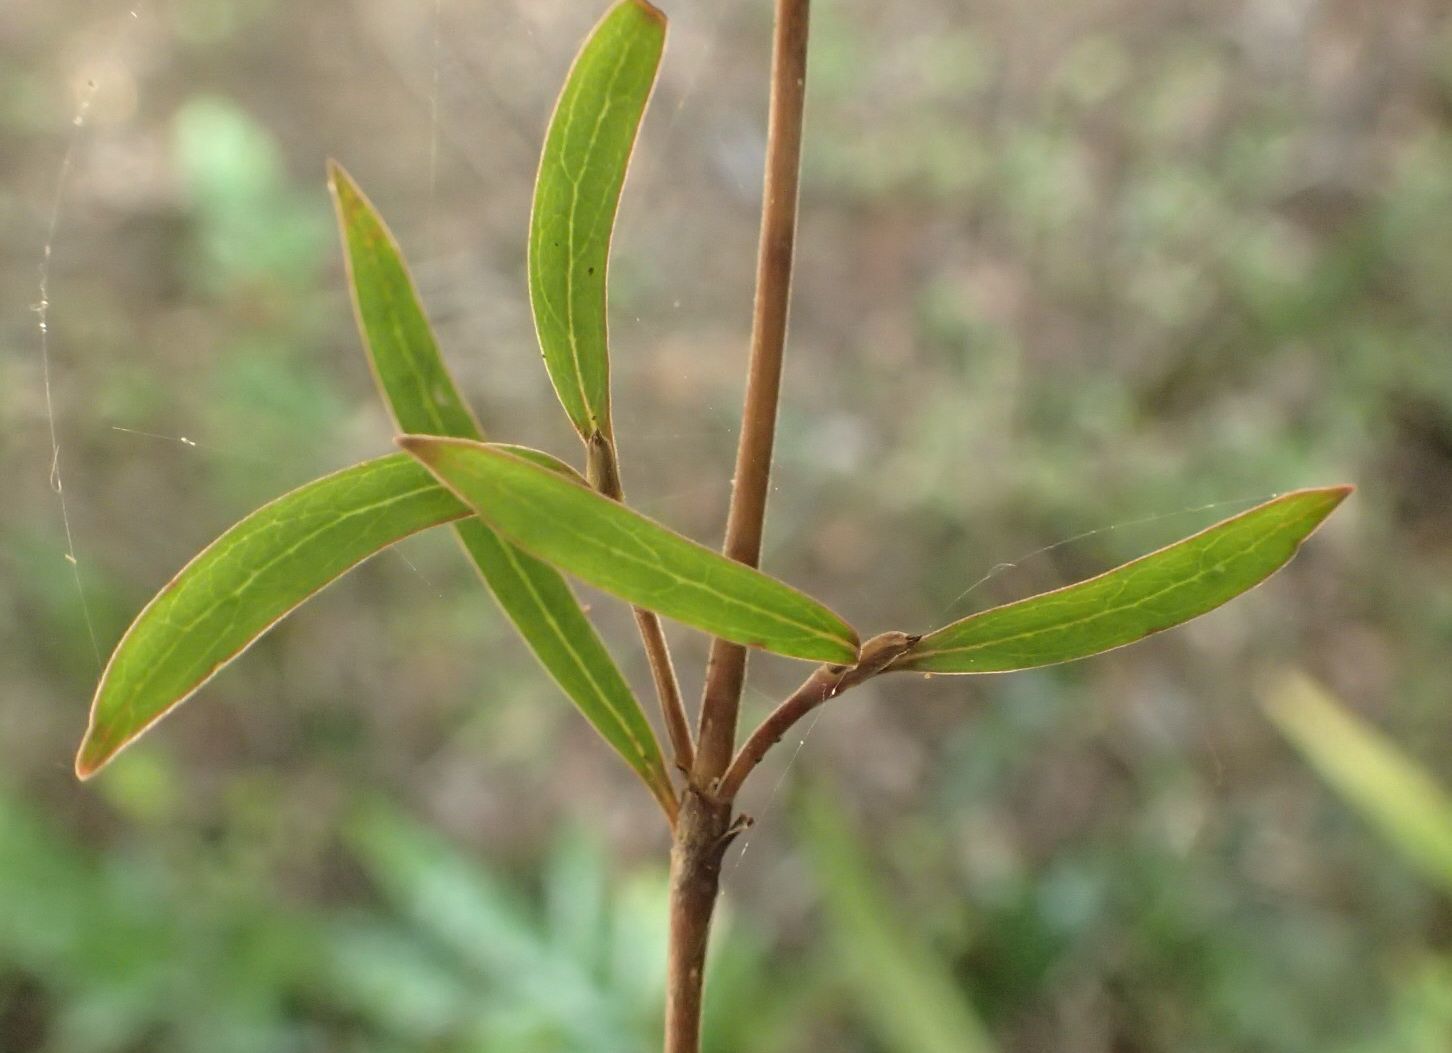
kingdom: Plantae
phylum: Tracheophyta
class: Magnoliopsida
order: Gentianales
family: Rubiaceae
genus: Coprosma
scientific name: Coprosma linariifolia
